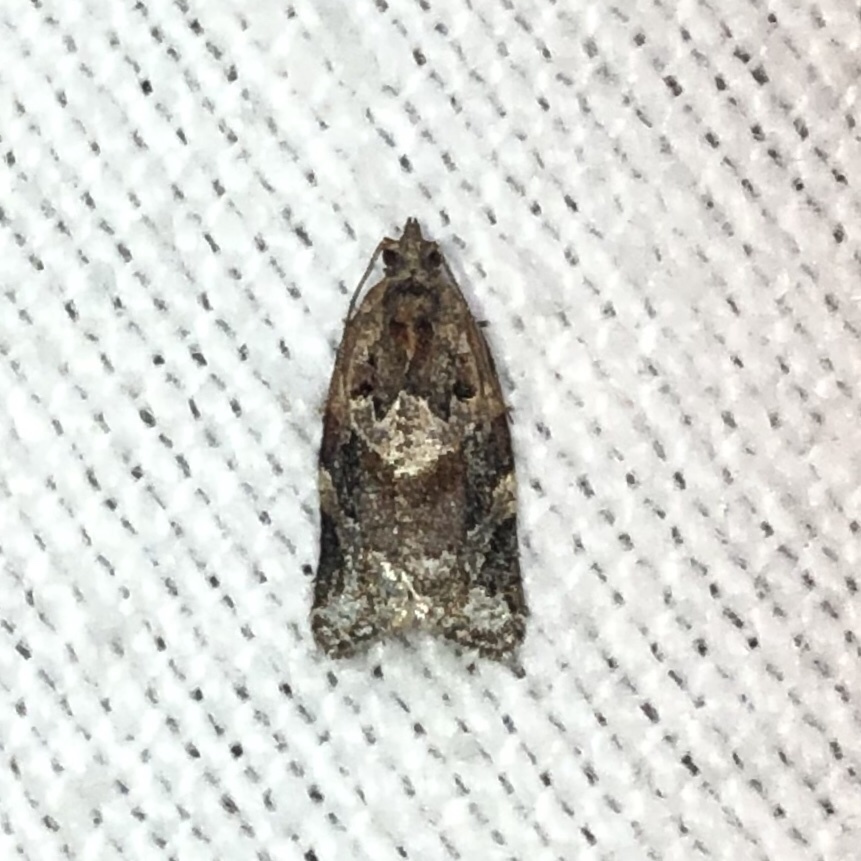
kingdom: Animalia
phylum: Arthropoda
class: Insecta
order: Lepidoptera
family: Tortricidae
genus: Argyrotaenia
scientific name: Argyrotaenia velutinana
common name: Red-banded leafroller moth
